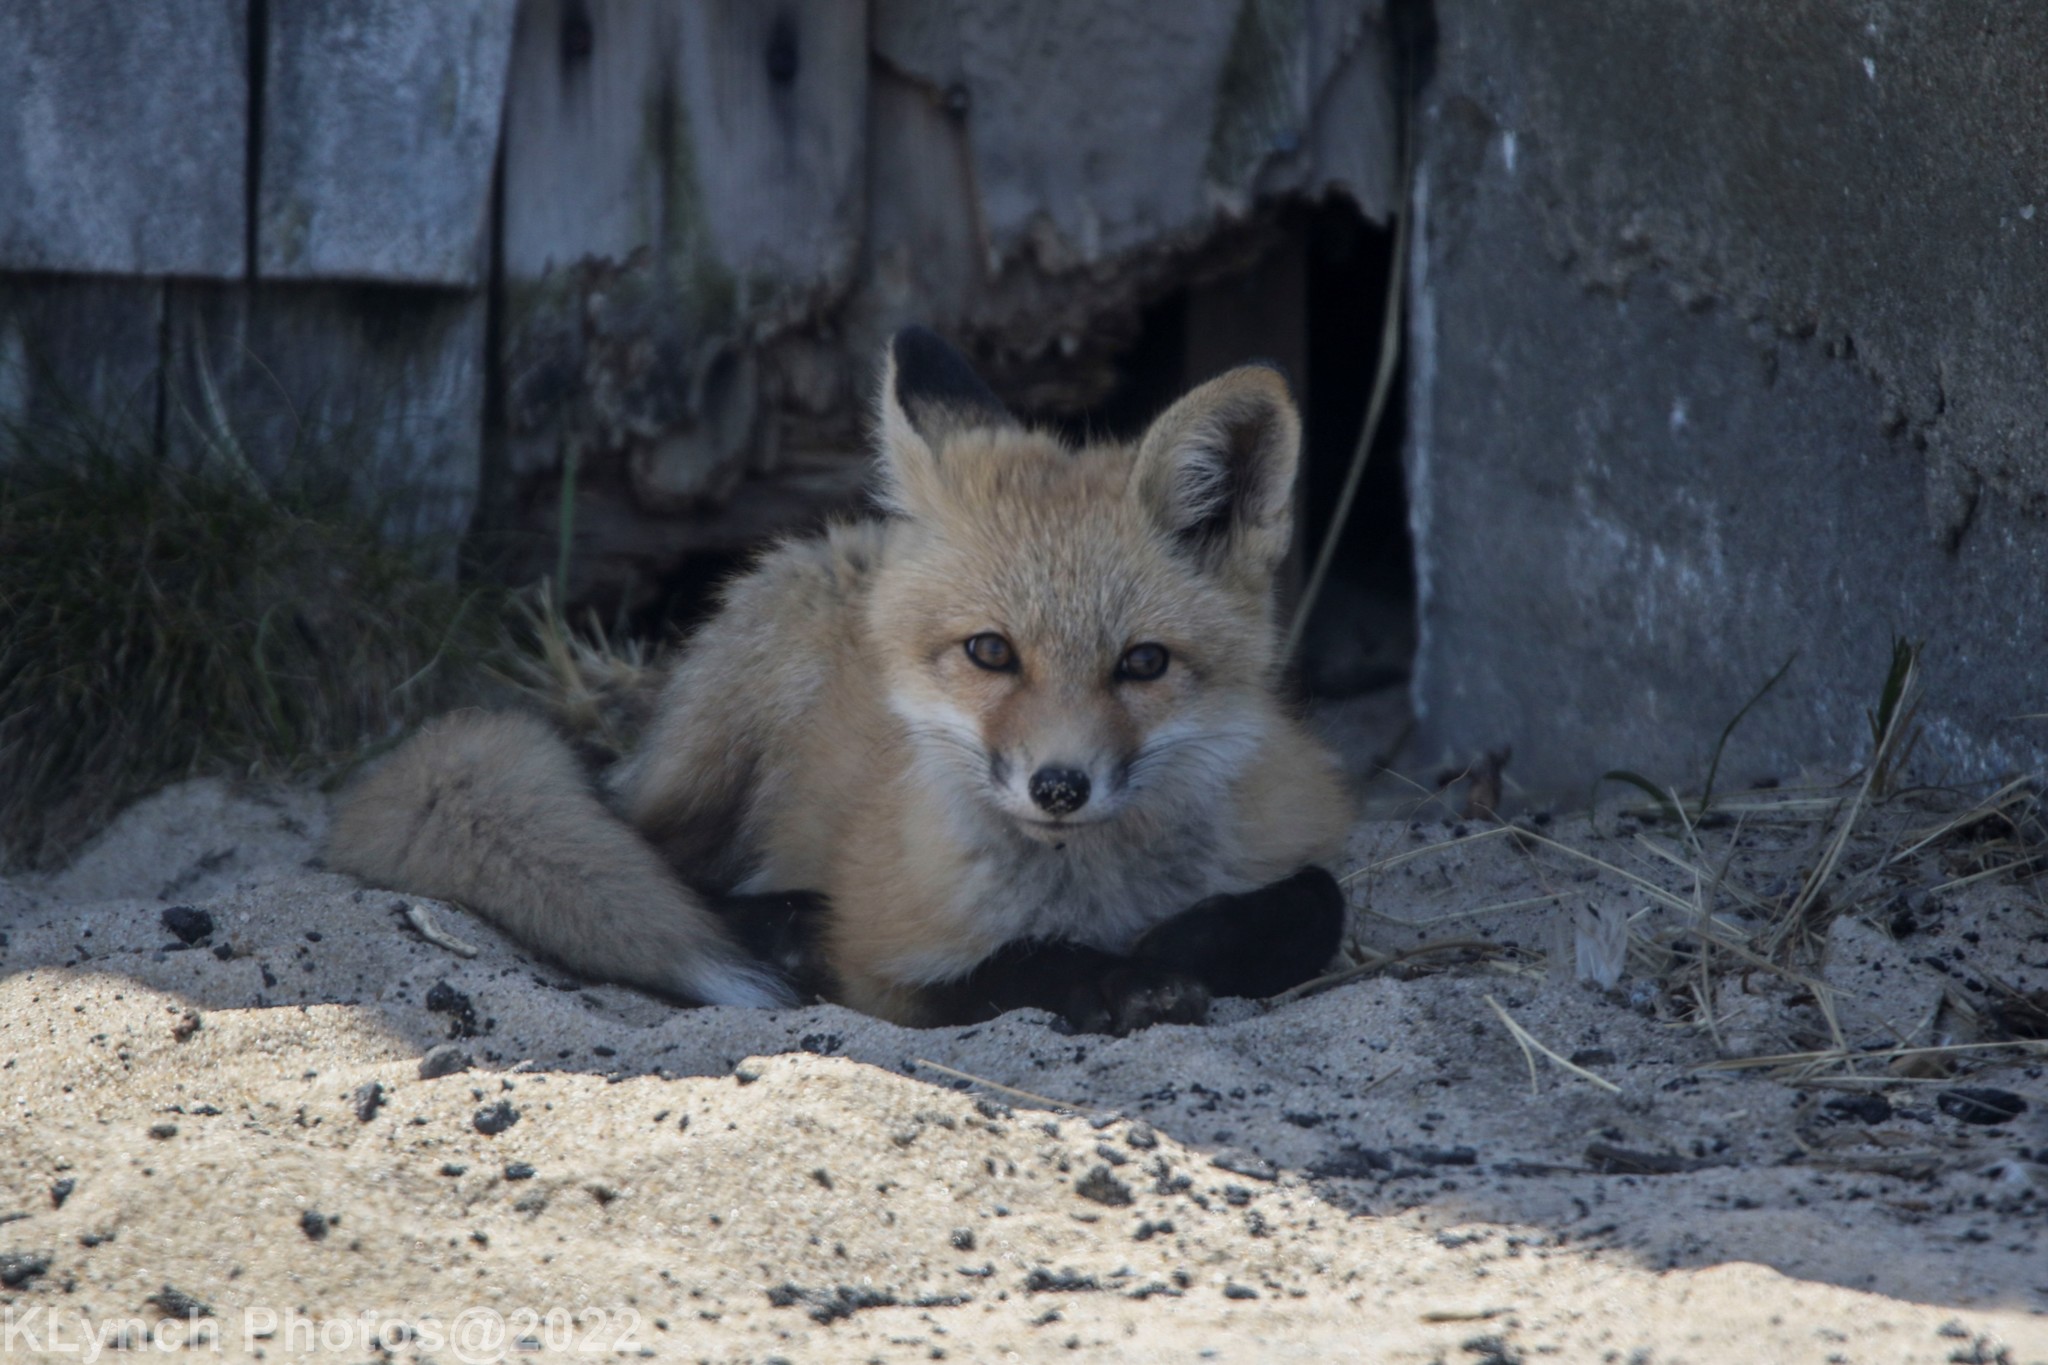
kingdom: Animalia
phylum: Chordata
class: Mammalia
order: Carnivora
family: Canidae
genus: Vulpes
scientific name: Vulpes vulpes
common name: Red fox
